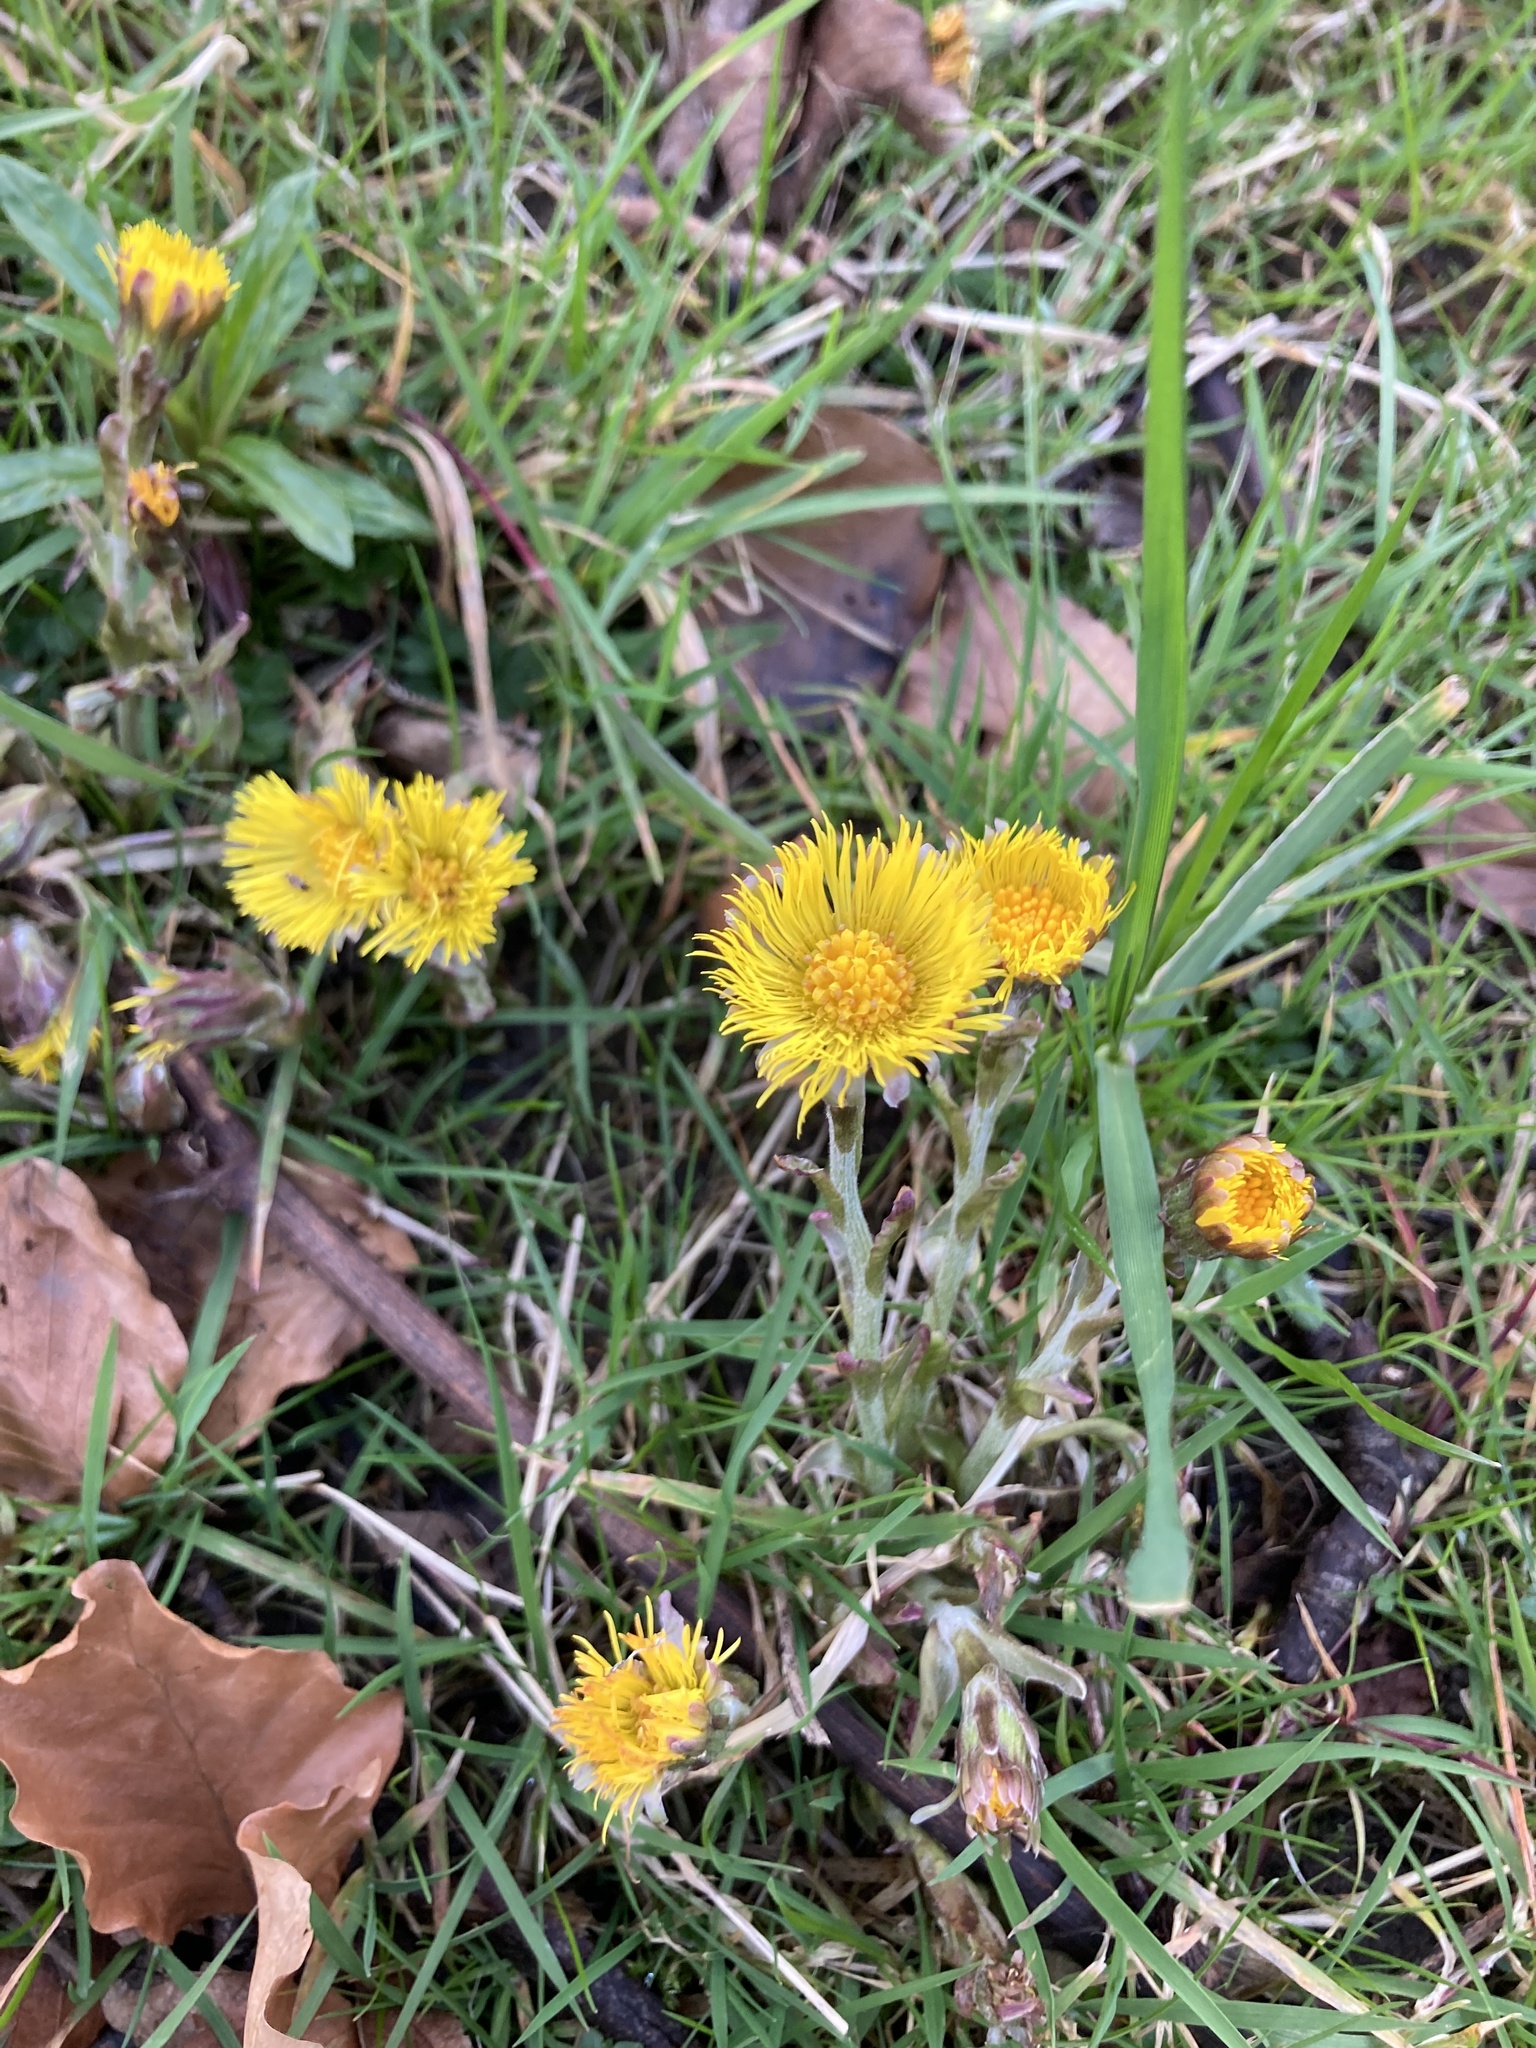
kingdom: Plantae
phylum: Tracheophyta
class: Magnoliopsida
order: Asterales
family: Asteraceae
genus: Tussilago
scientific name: Tussilago farfara
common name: Coltsfoot
